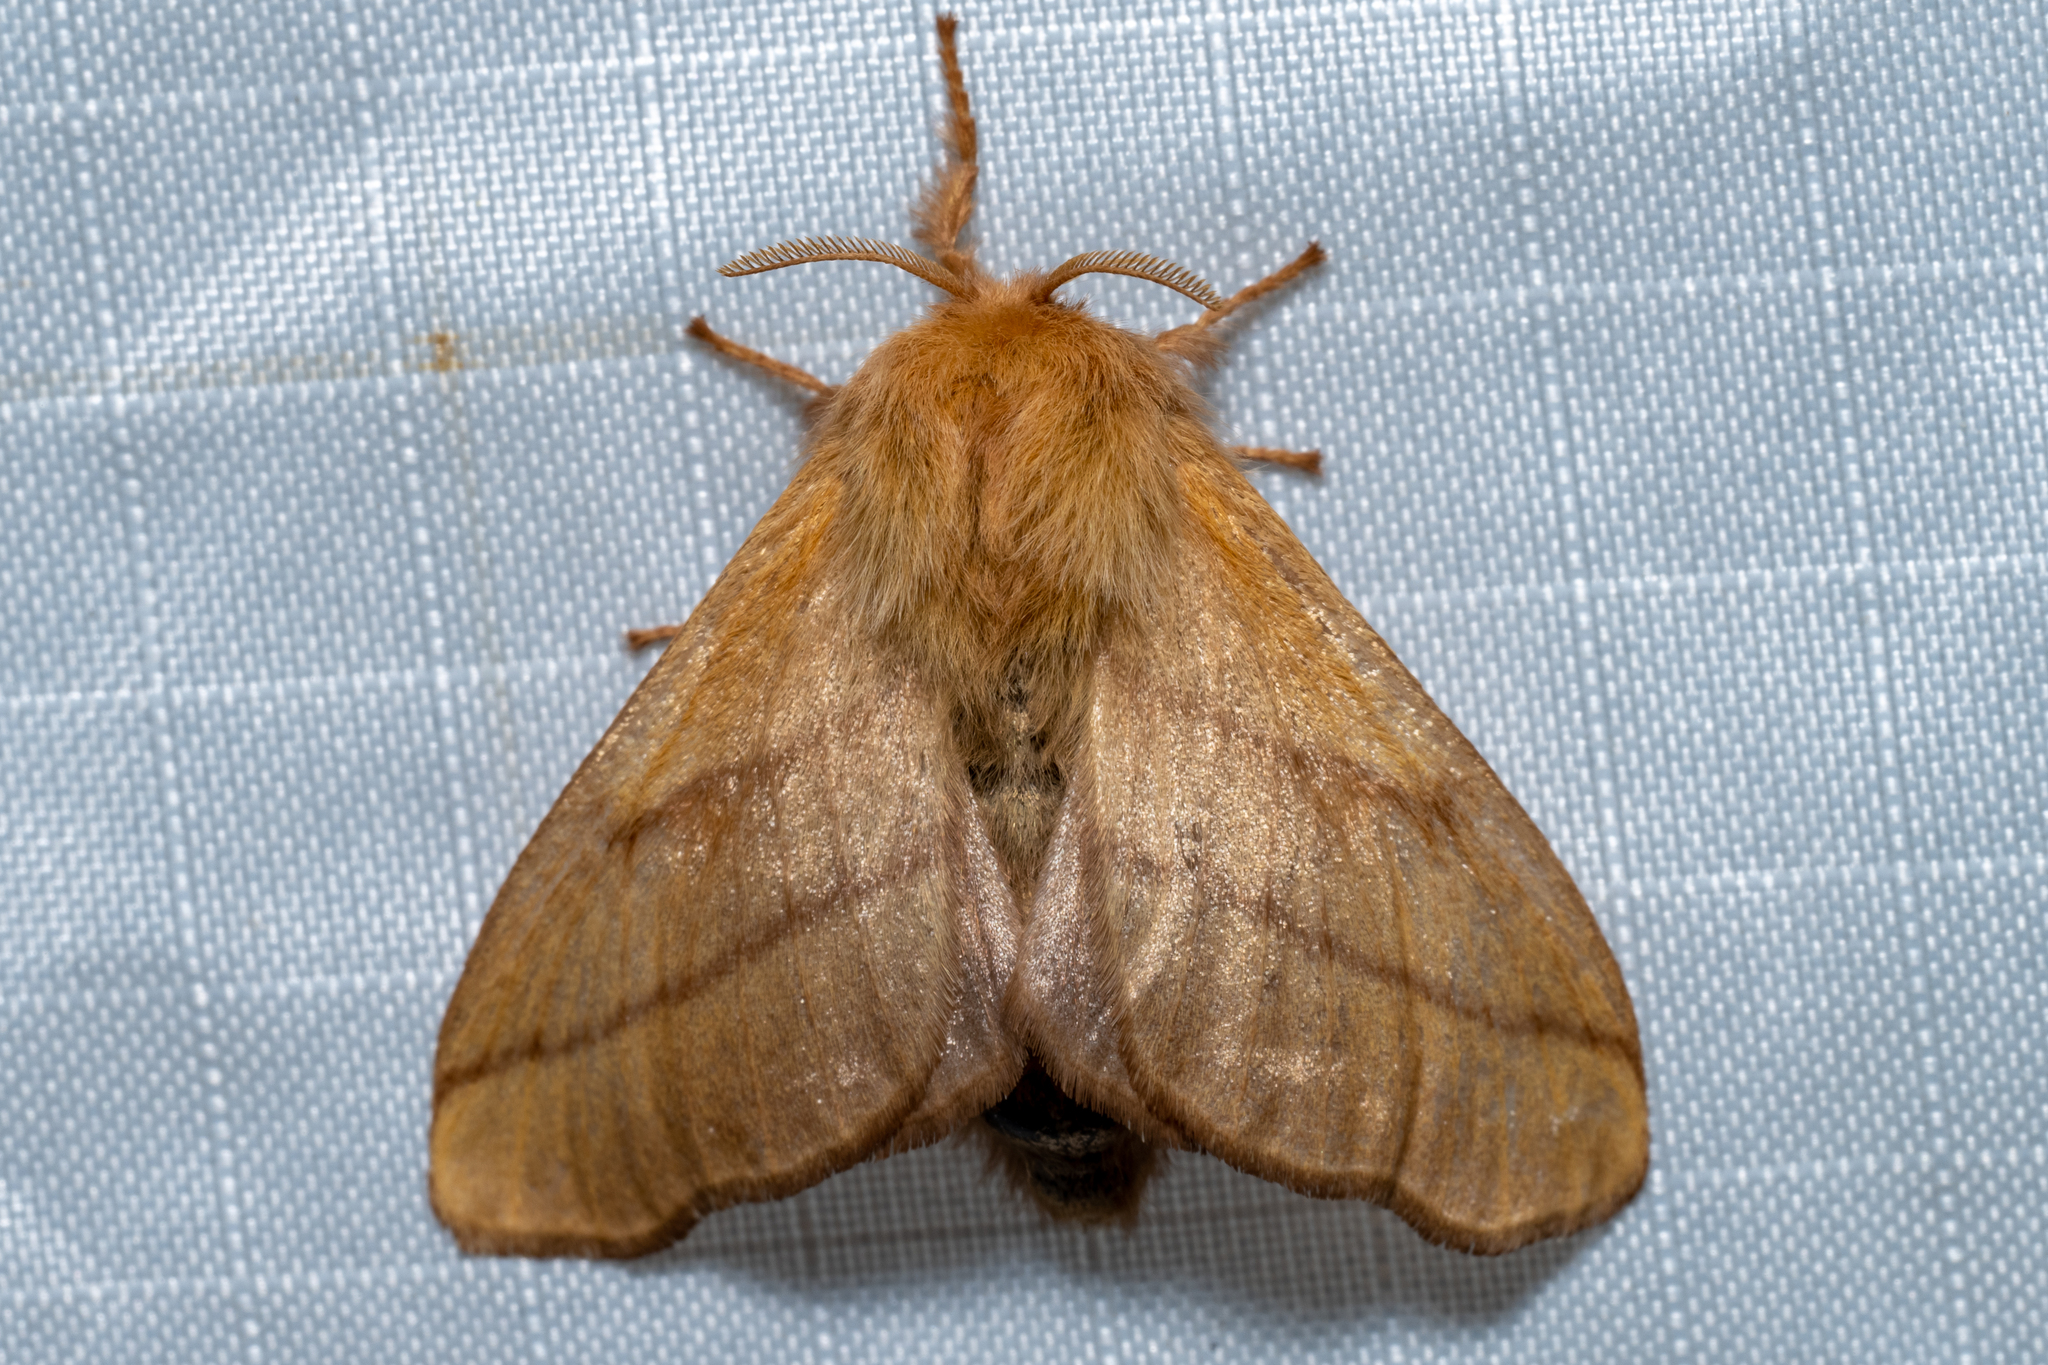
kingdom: Animalia
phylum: Arthropoda
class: Insecta
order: Lepidoptera
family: Lasiocampidae
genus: Malacosoma
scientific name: Malacosoma disstria
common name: Forest tent caterpillar
